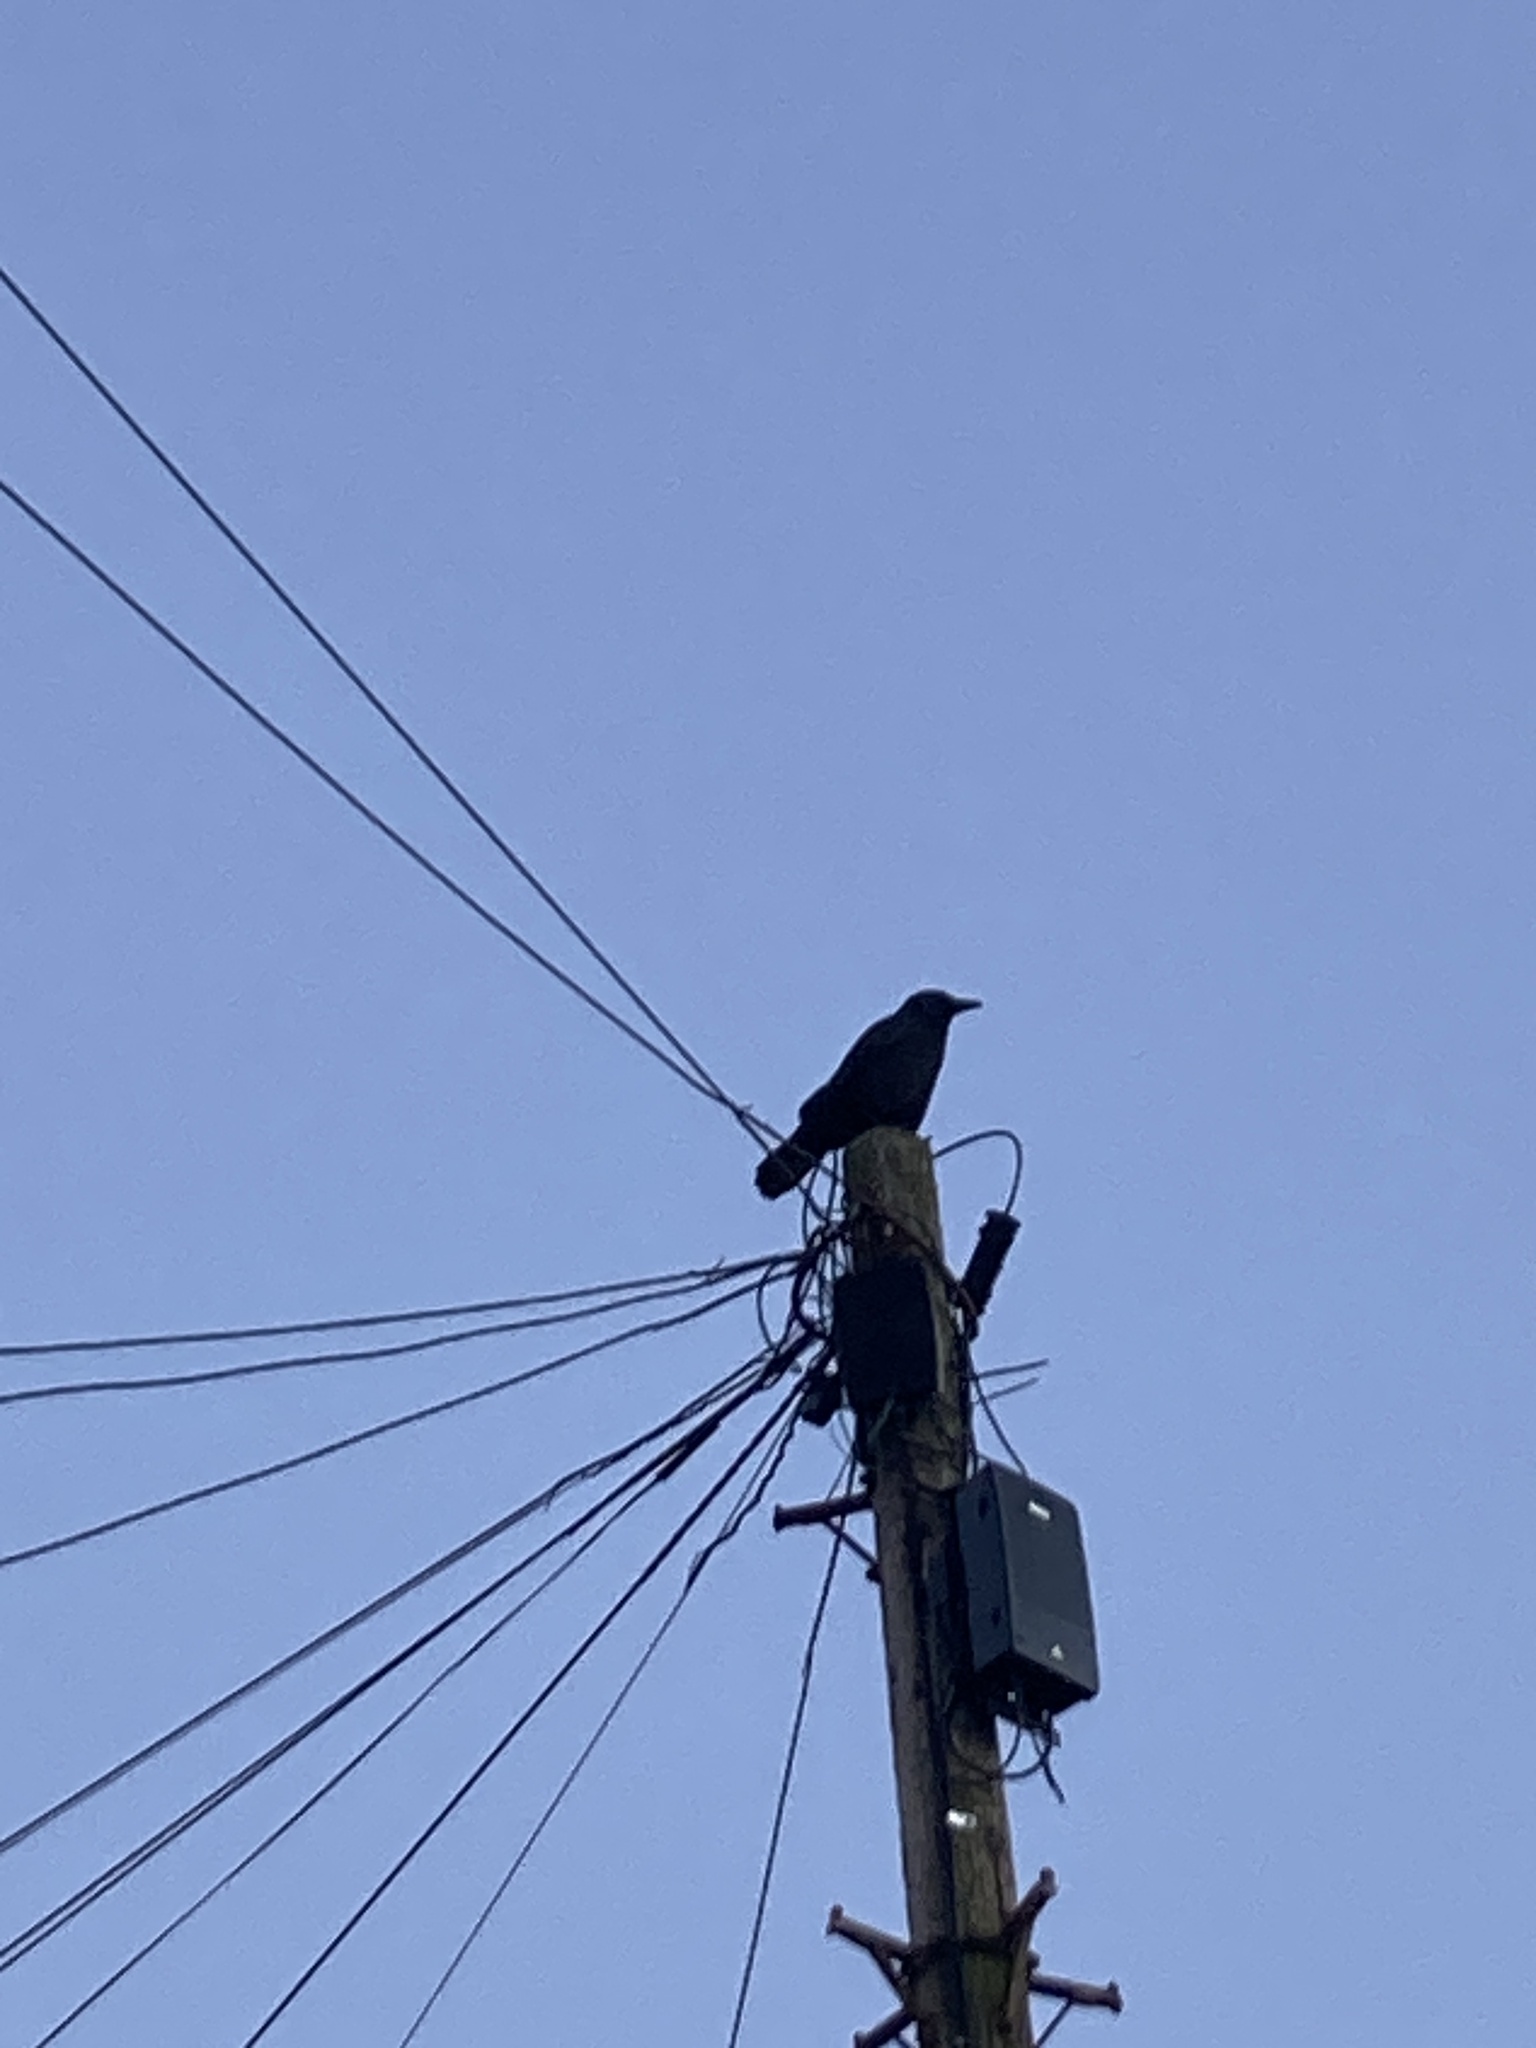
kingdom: Animalia
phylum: Chordata
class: Aves
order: Passeriformes
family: Corvidae
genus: Corvus
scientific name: Corvus corone
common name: Carrion crow
